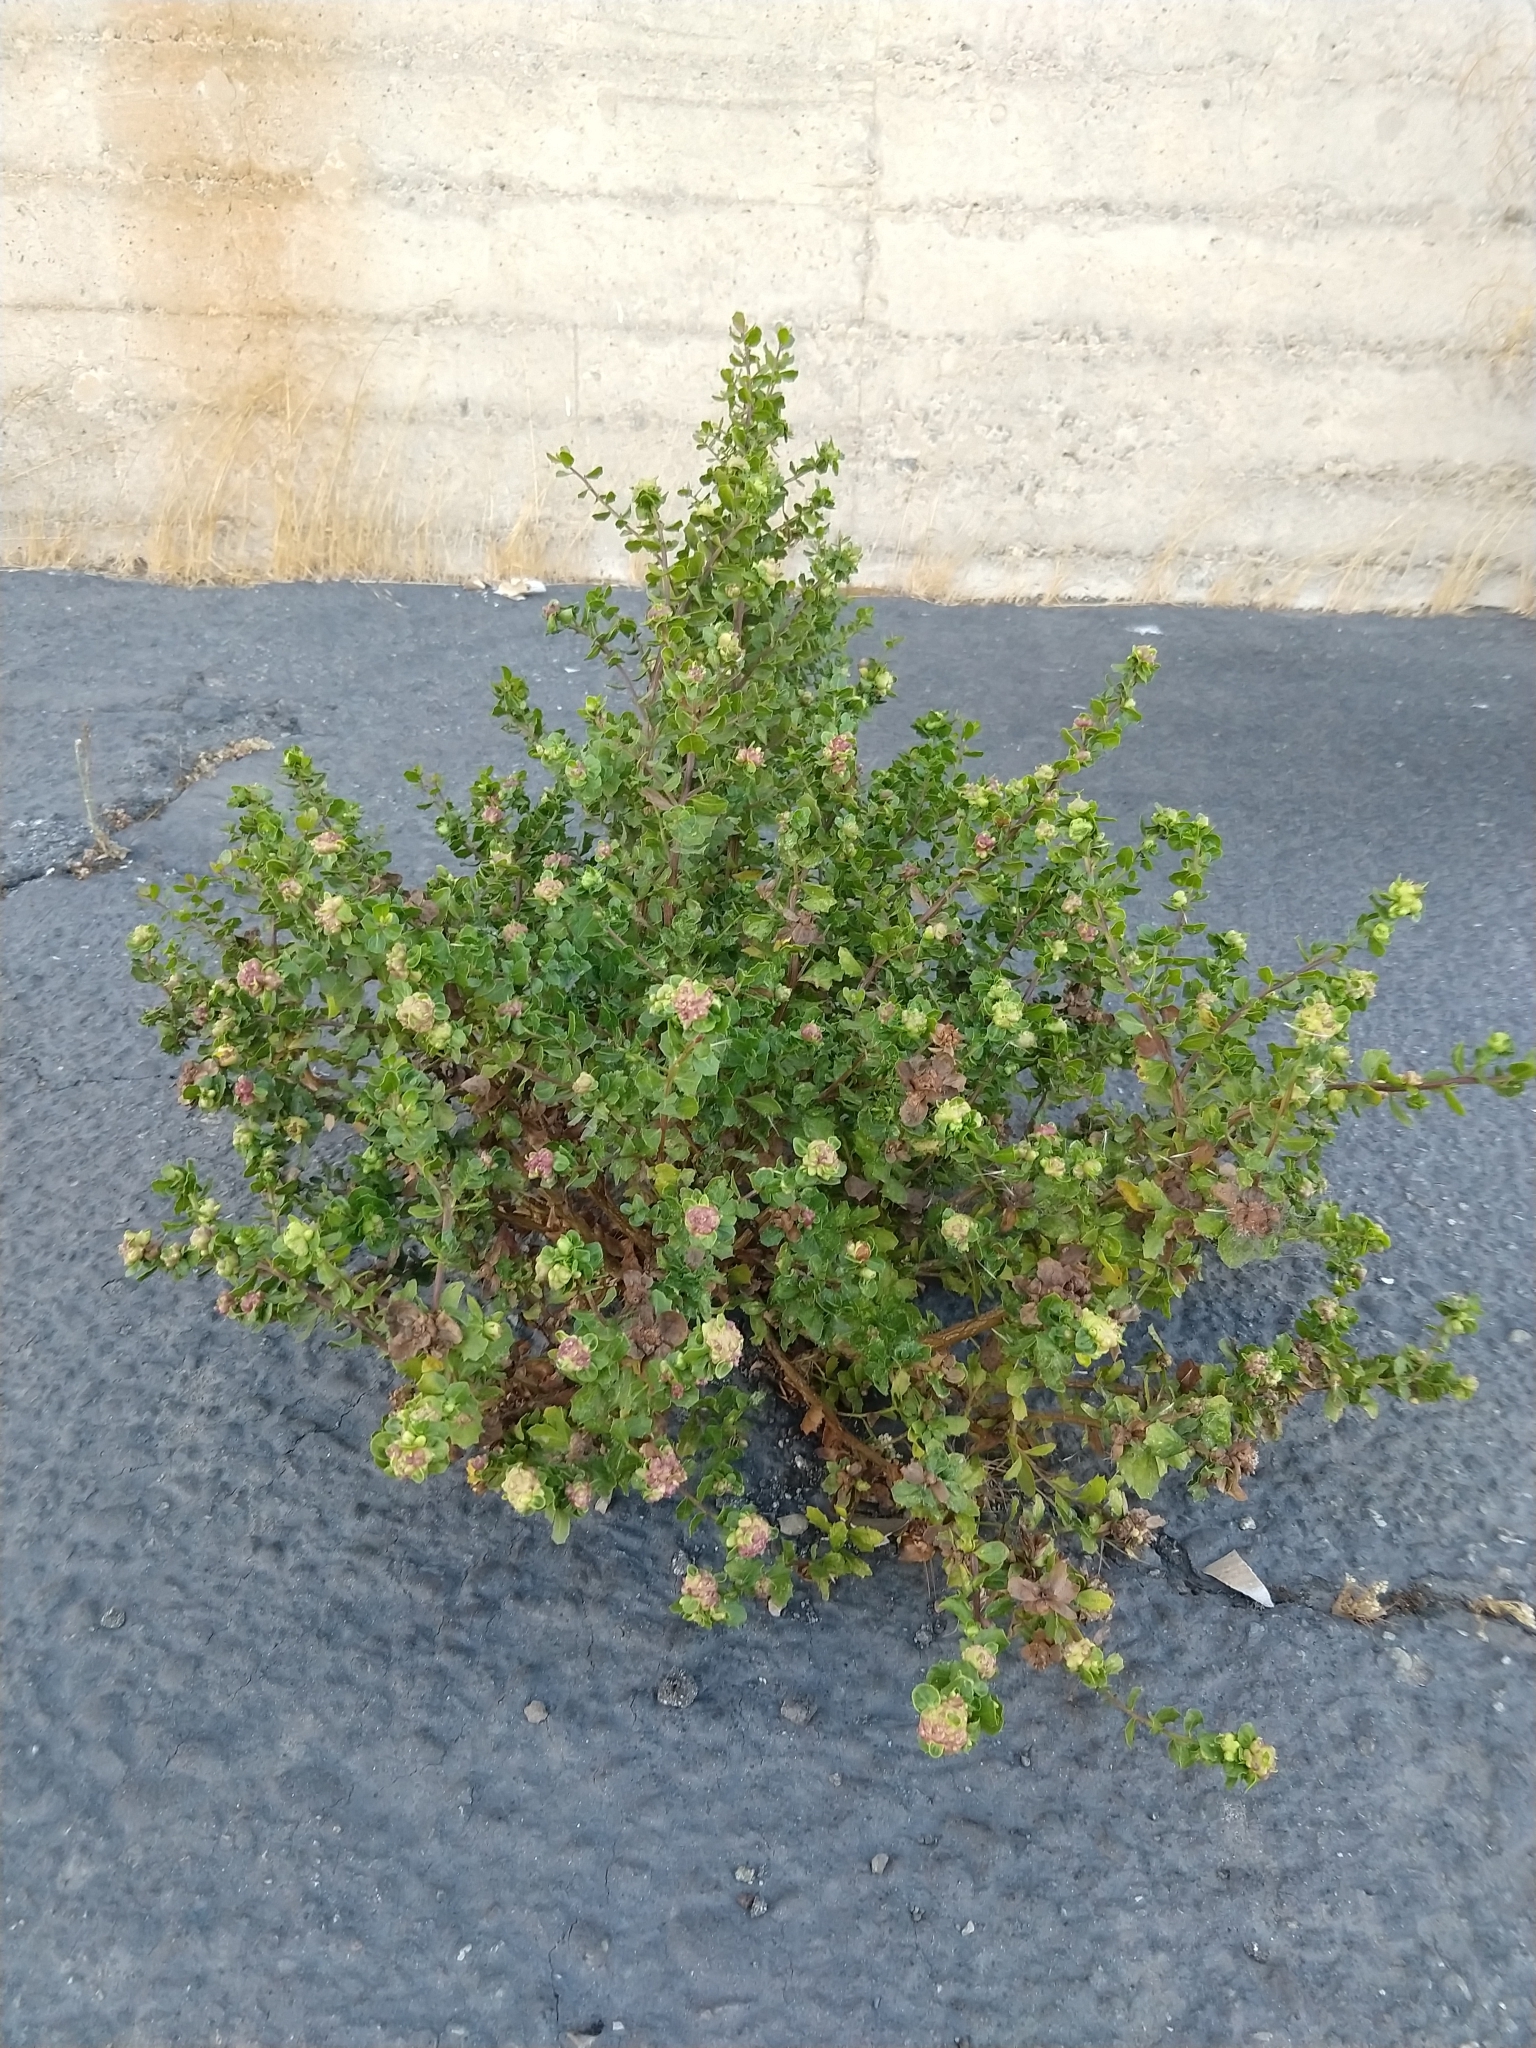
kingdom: Animalia
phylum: Arthropoda
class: Insecta
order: Diptera
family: Cecidomyiidae
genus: Rhopalomyia
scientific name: Rhopalomyia californica
